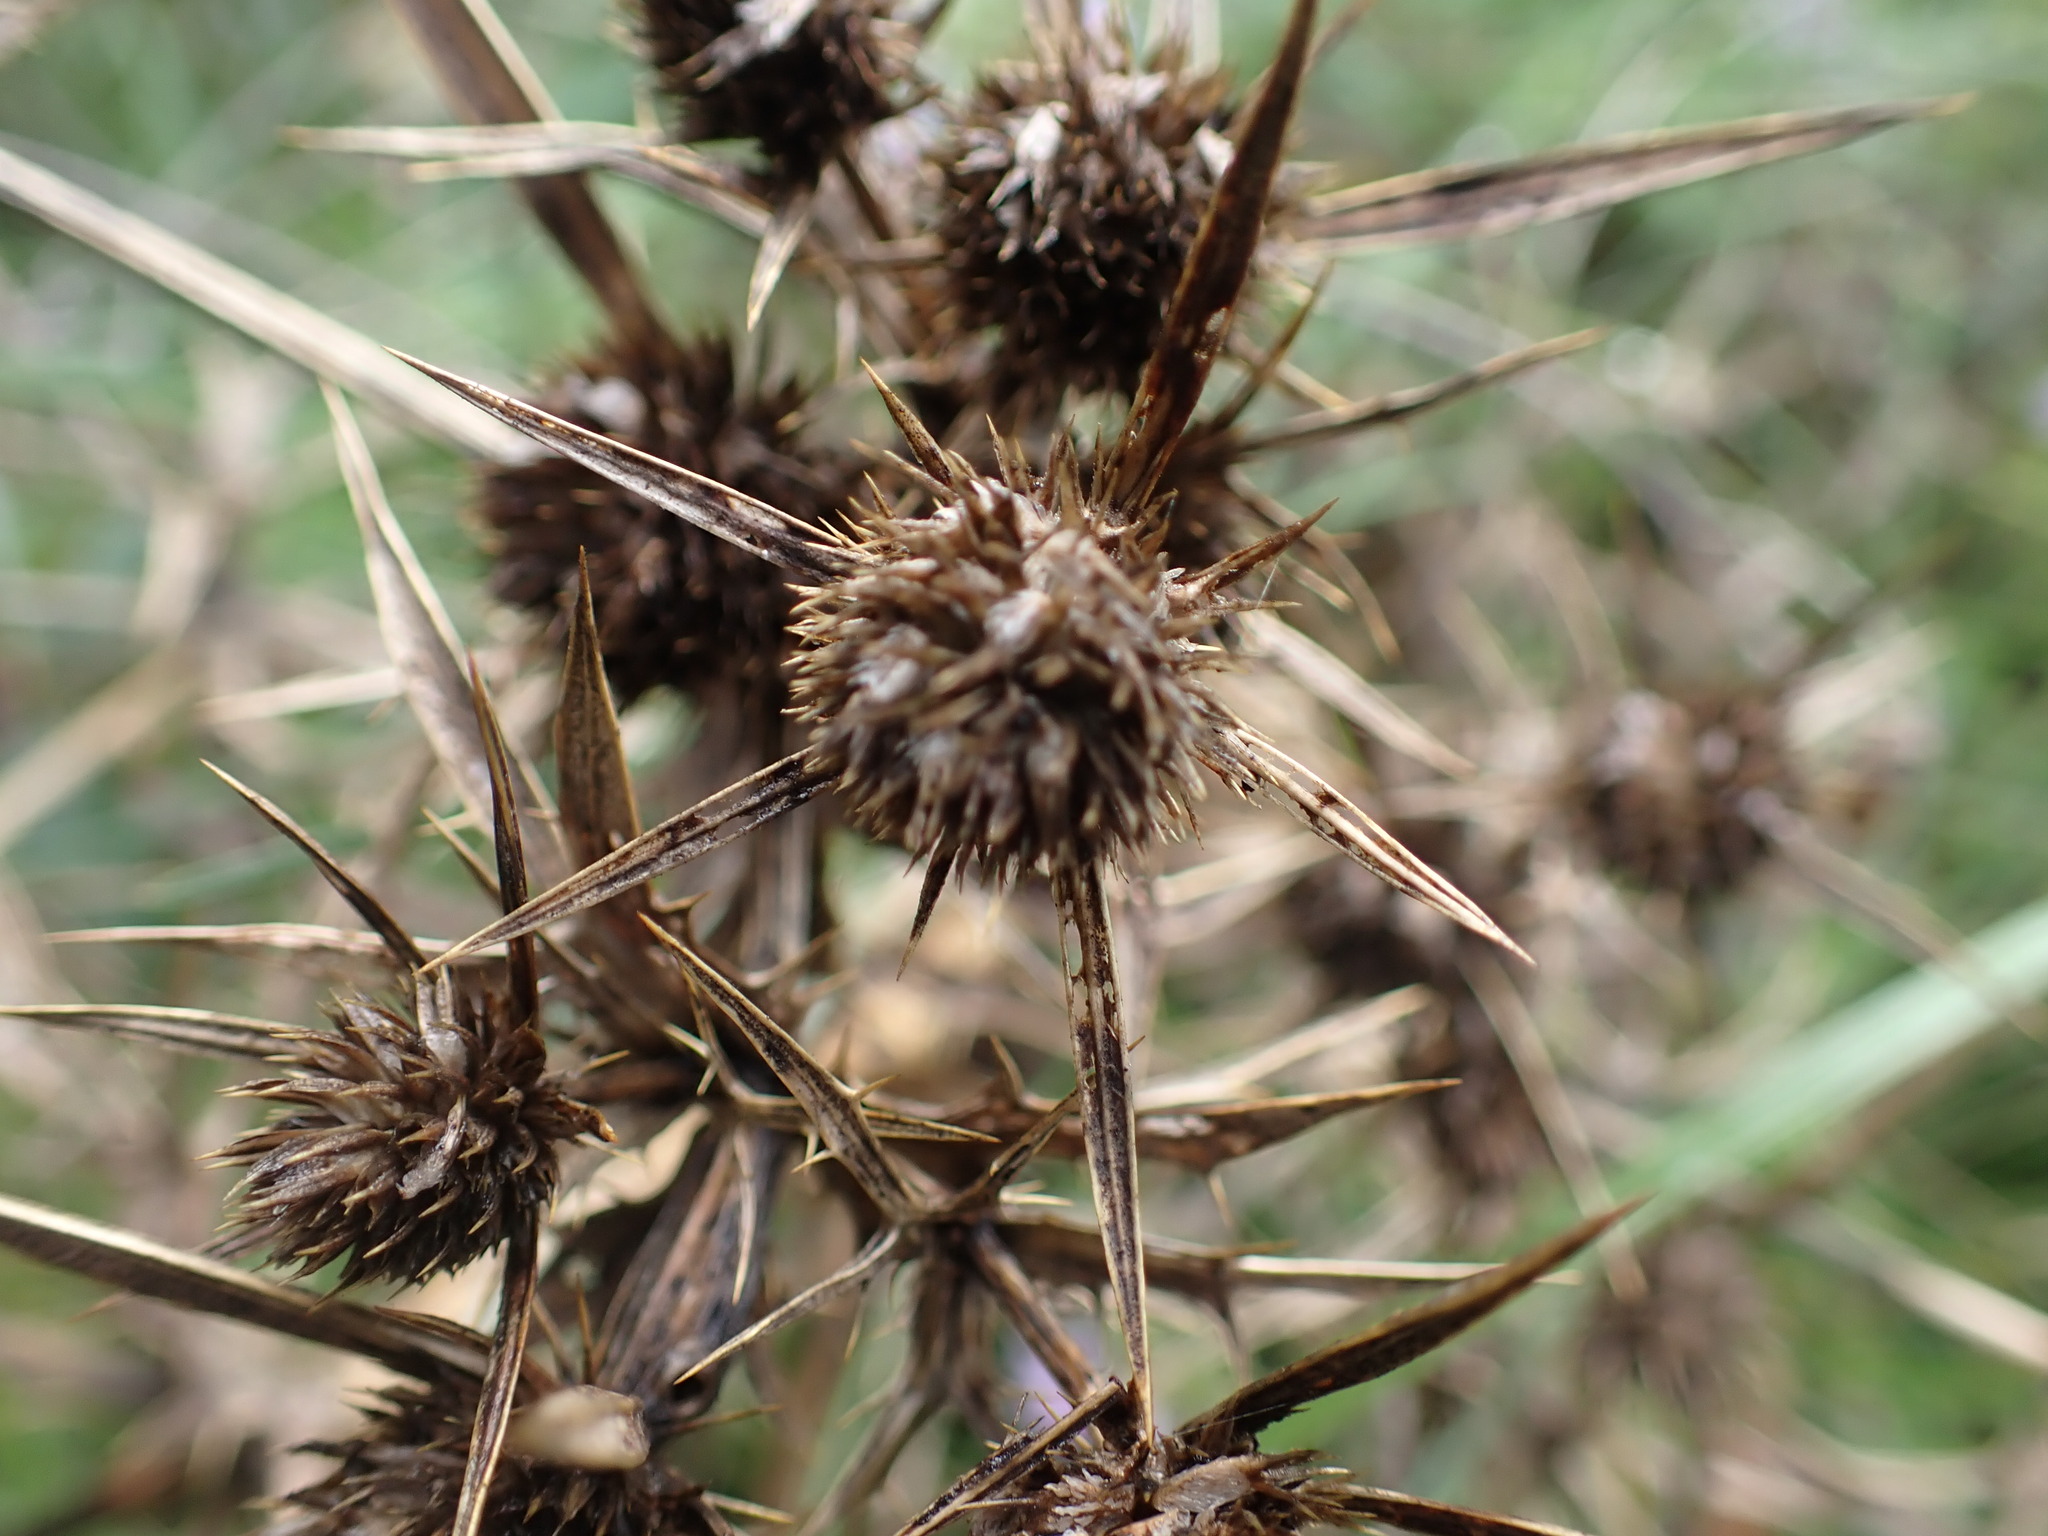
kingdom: Plantae
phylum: Tracheophyta
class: Magnoliopsida
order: Apiales
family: Apiaceae
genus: Eryngium
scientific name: Eryngium campestre
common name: Field eryngo
